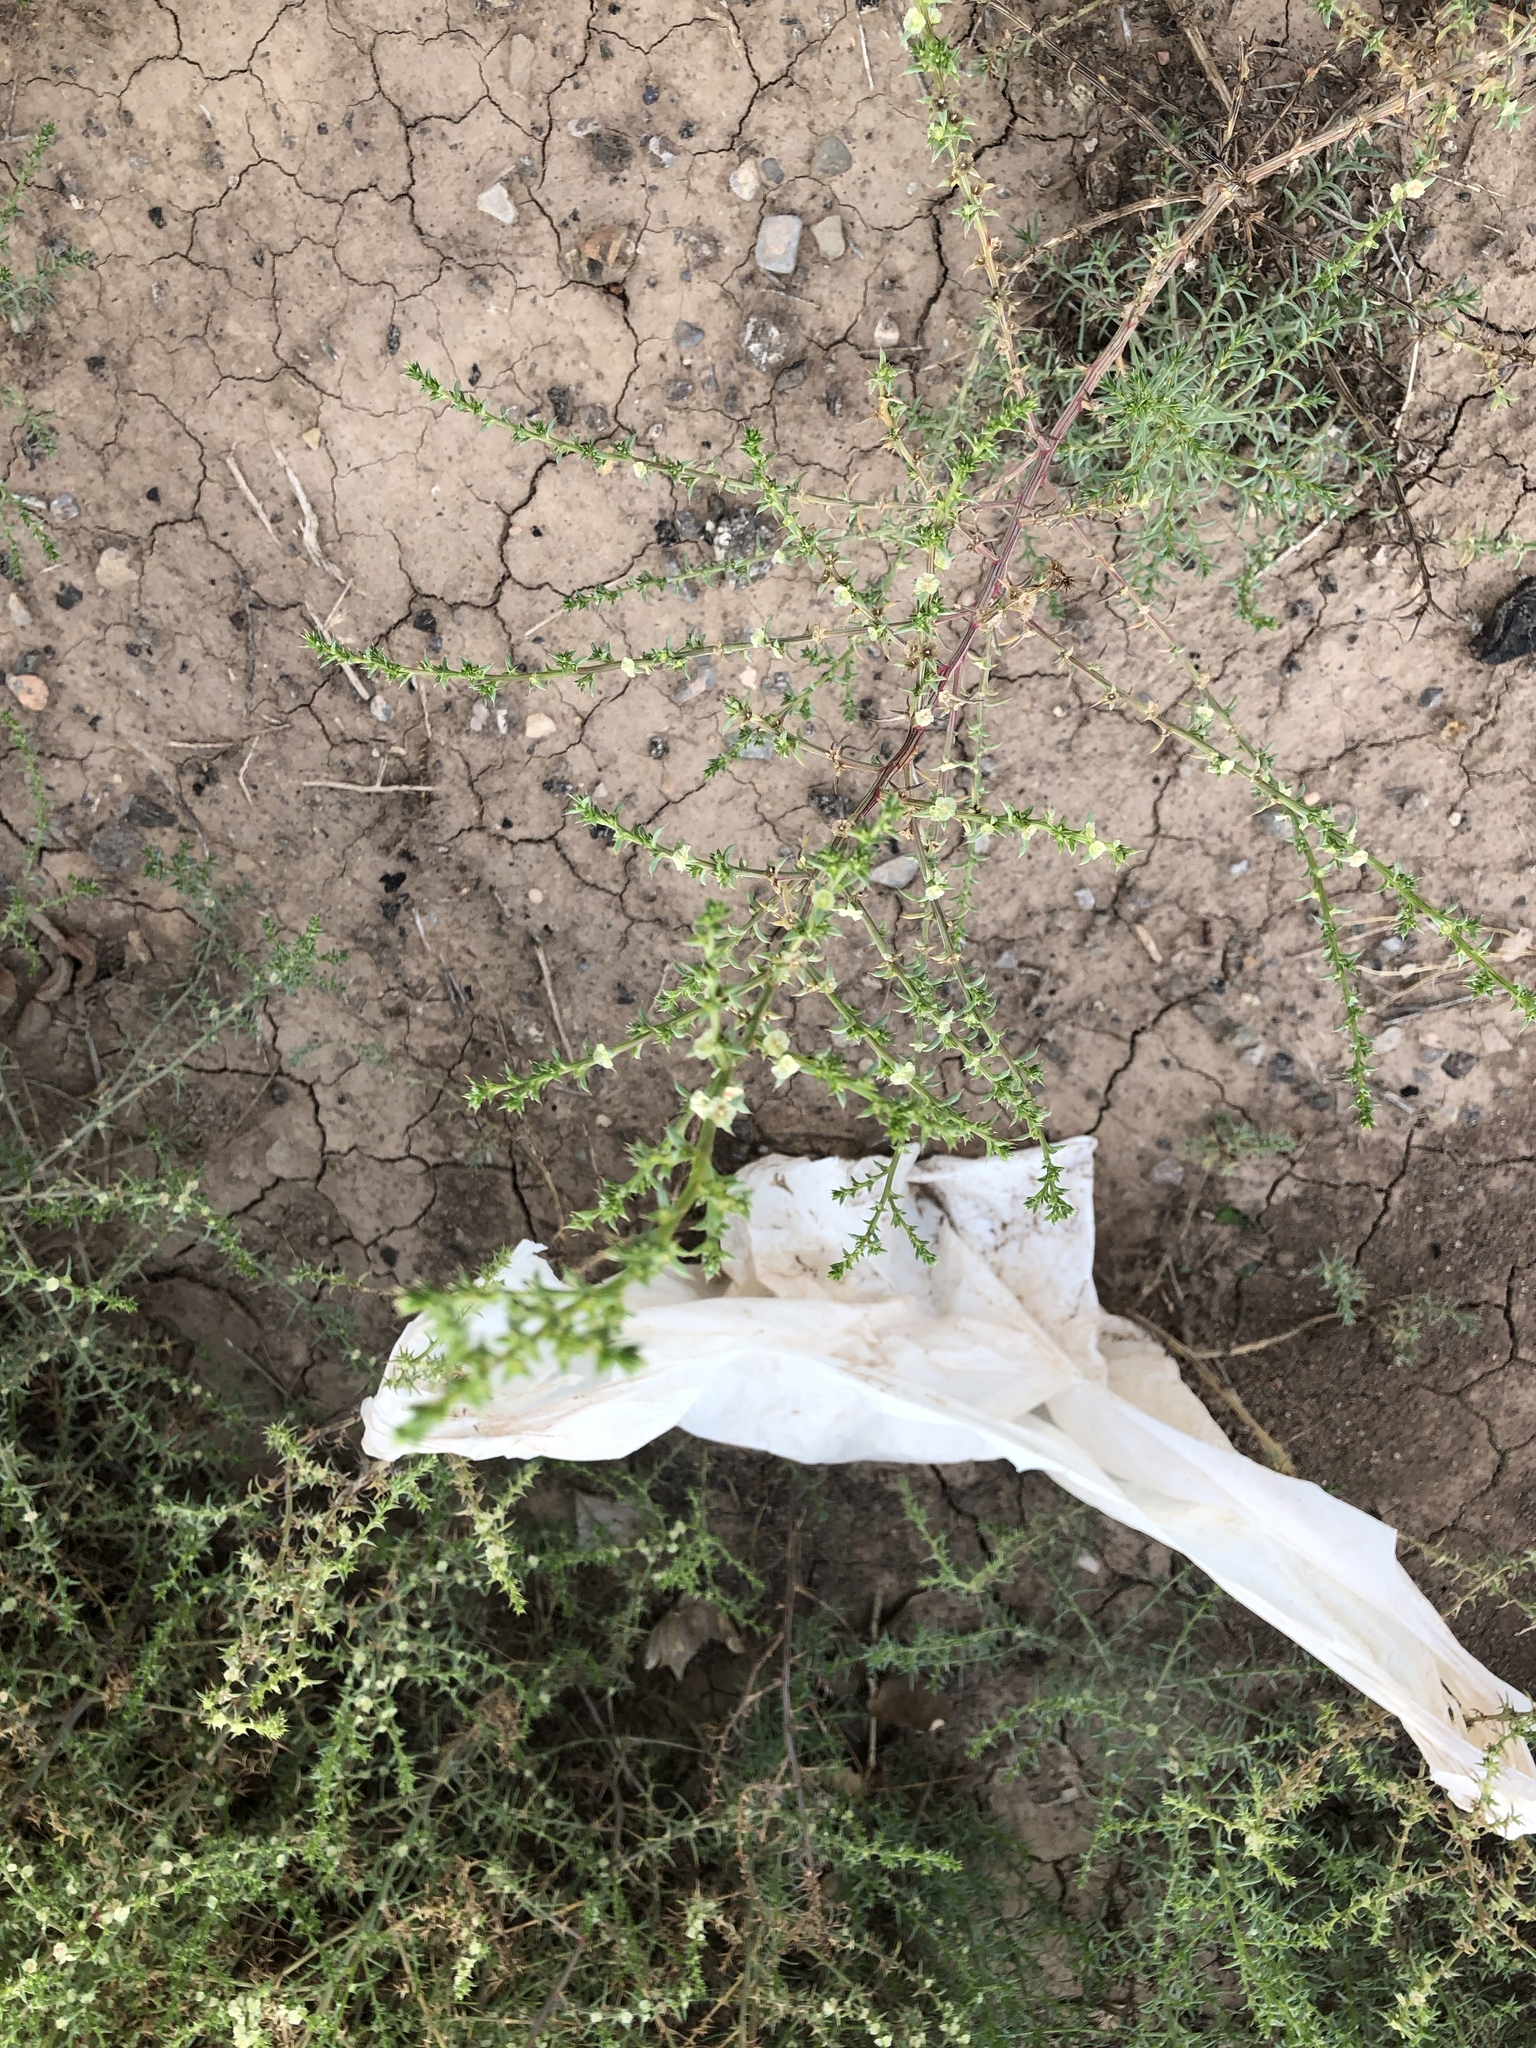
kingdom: Plantae
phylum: Tracheophyta
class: Magnoliopsida
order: Caryophyllales
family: Amaranthaceae
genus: Salsola
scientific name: Salsola tragus
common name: Prickly russian thistle
